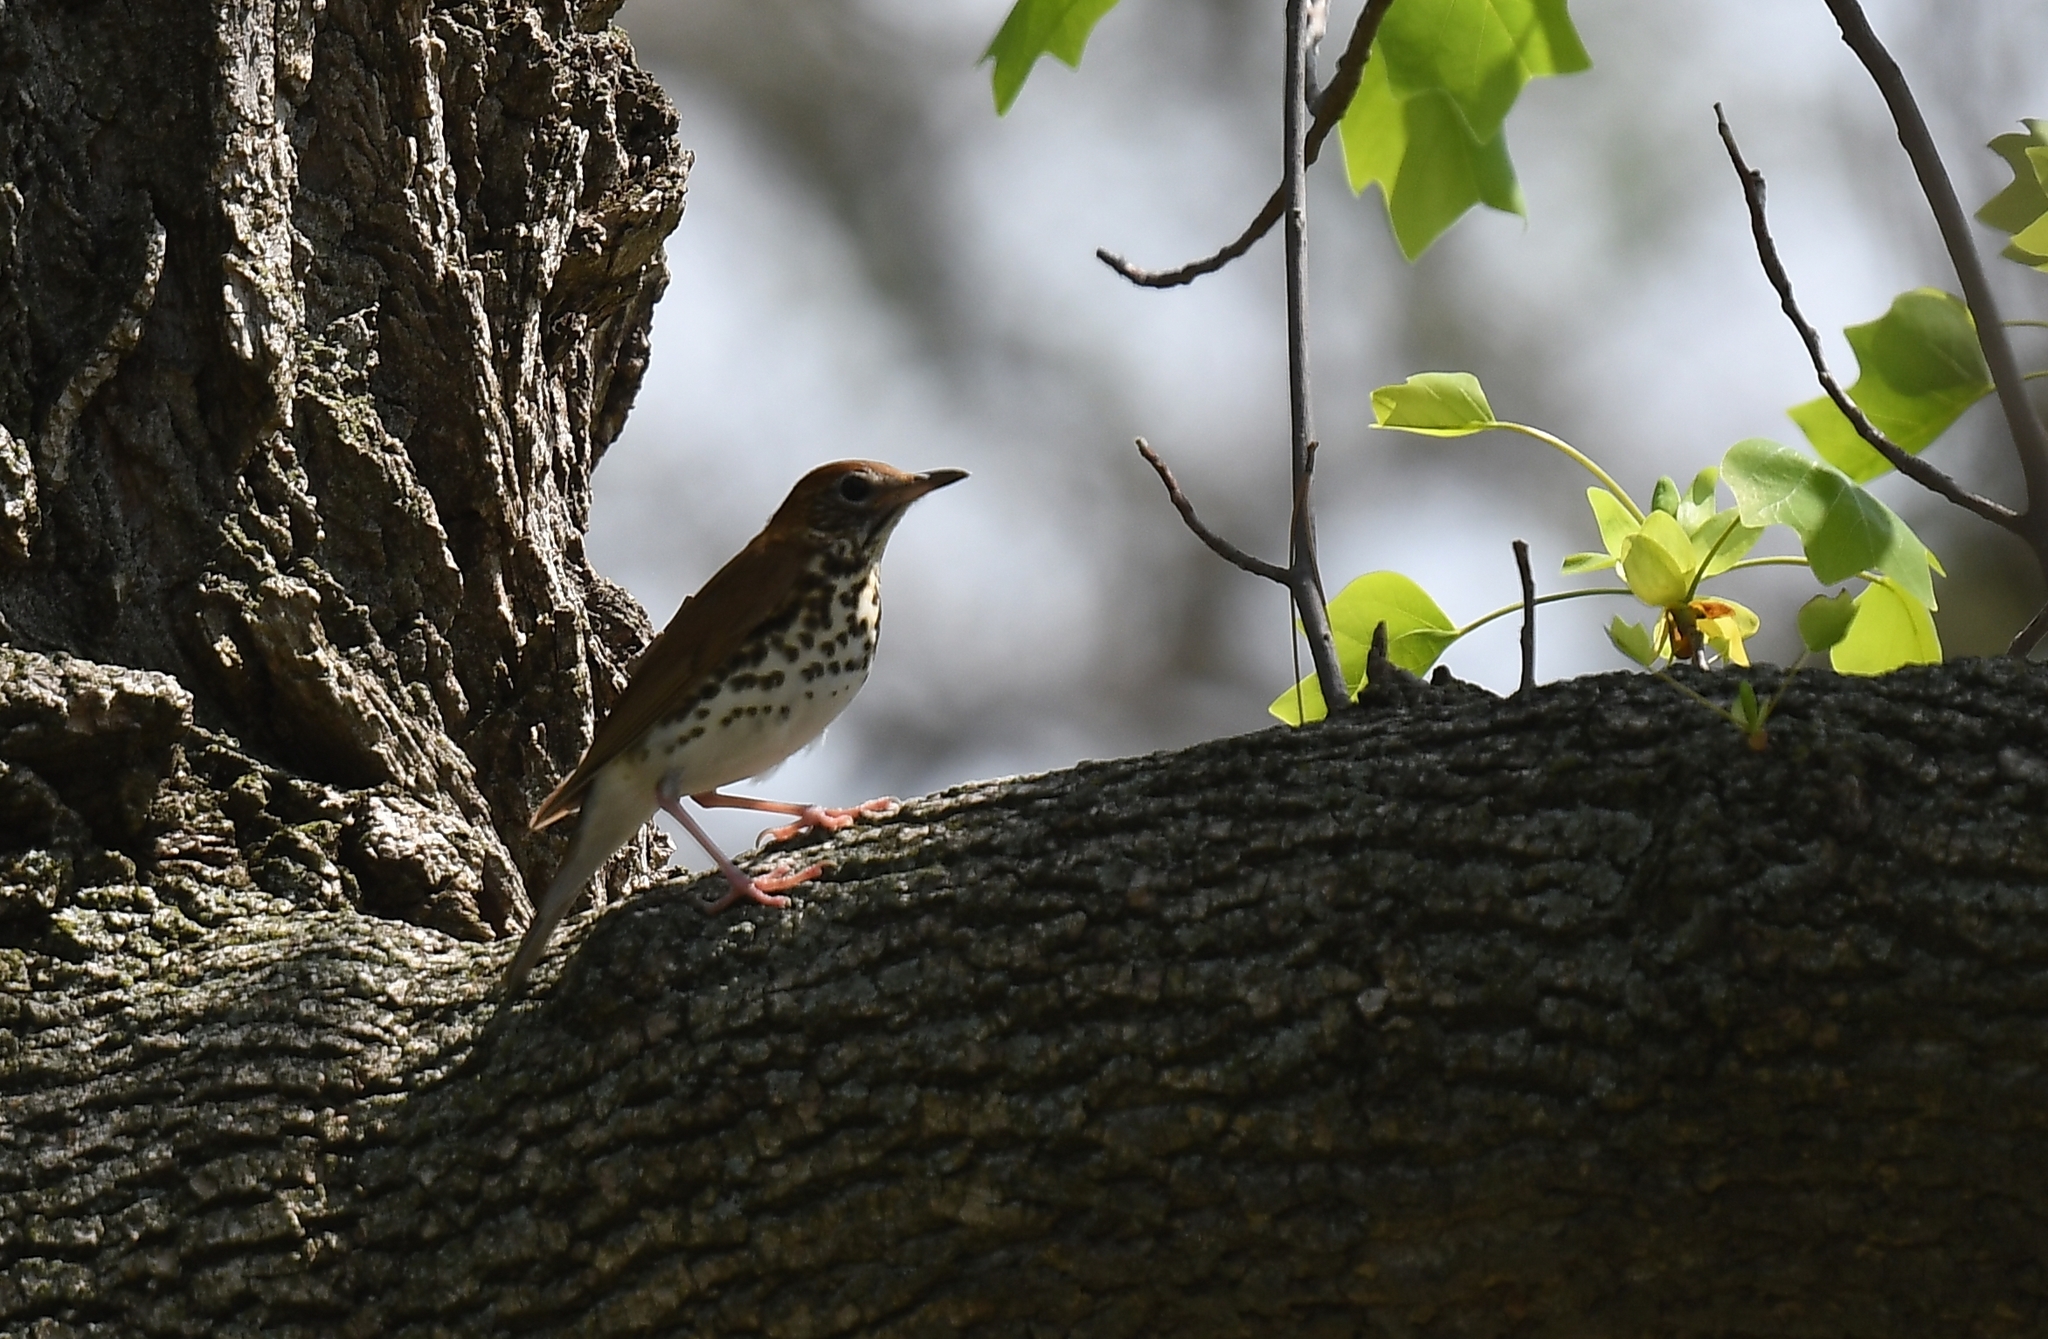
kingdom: Animalia
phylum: Chordata
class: Aves
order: Passeriformes
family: Turdidae
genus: Hylocichla
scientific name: Hylocichla mustelina
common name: Wood thrush
